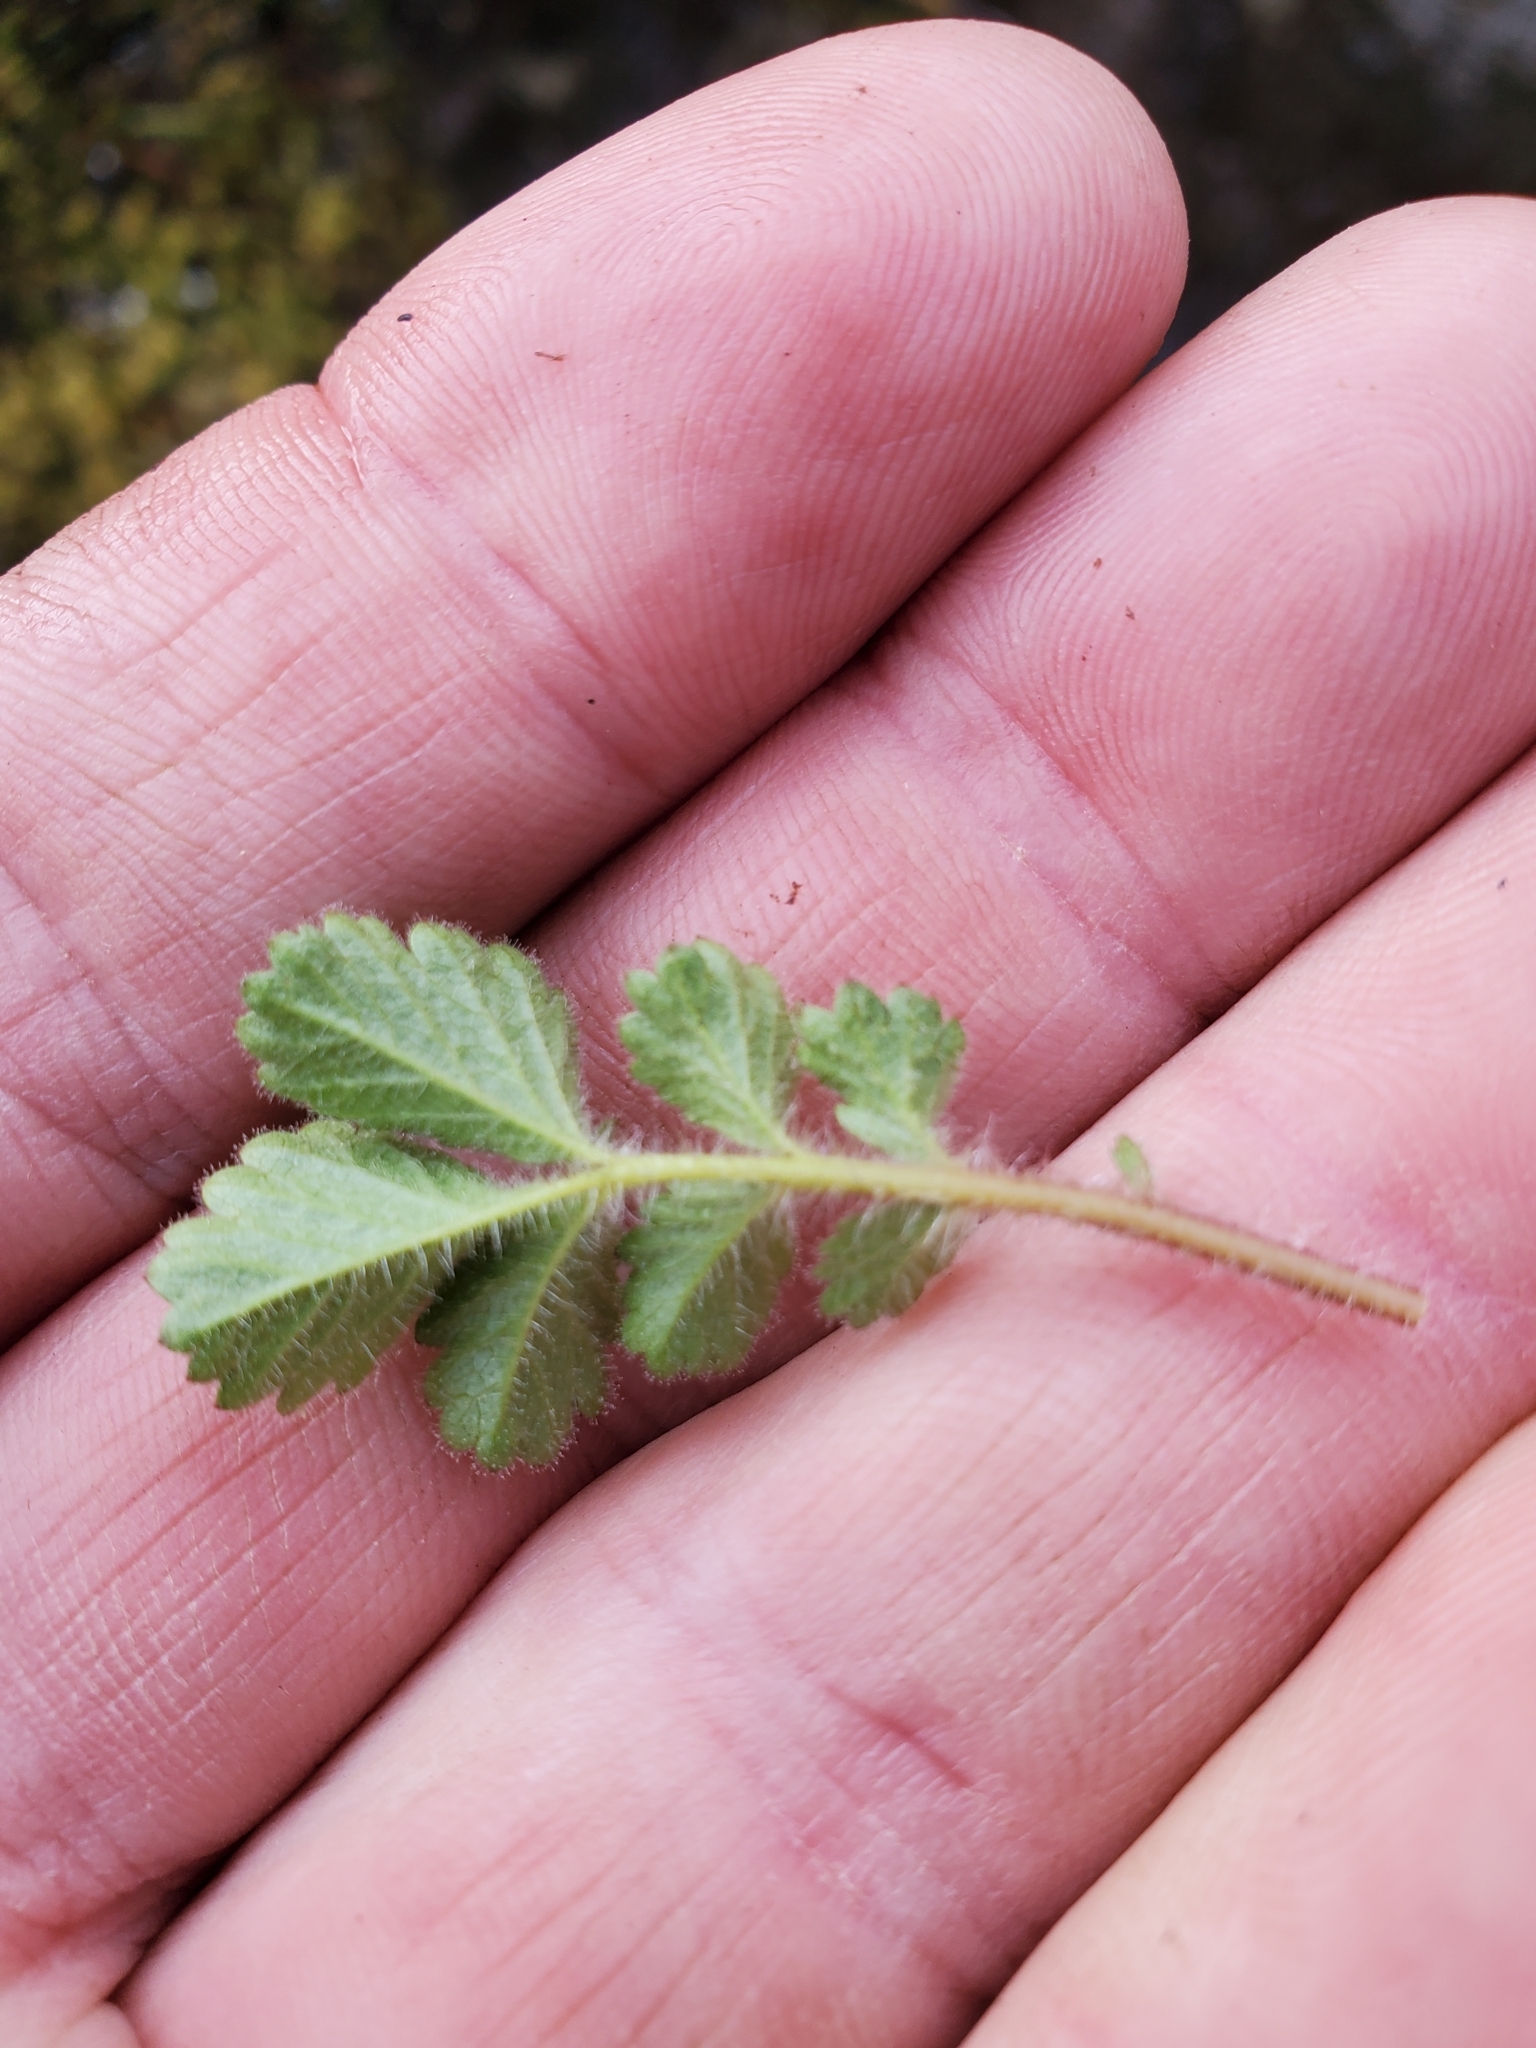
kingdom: Plantae
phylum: Tracheophyta
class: Magnoliopsida
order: Rosales
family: Rosaceae
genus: Drymocallis
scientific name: Drymocallis glandulosa
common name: Sticky cinquefoil
